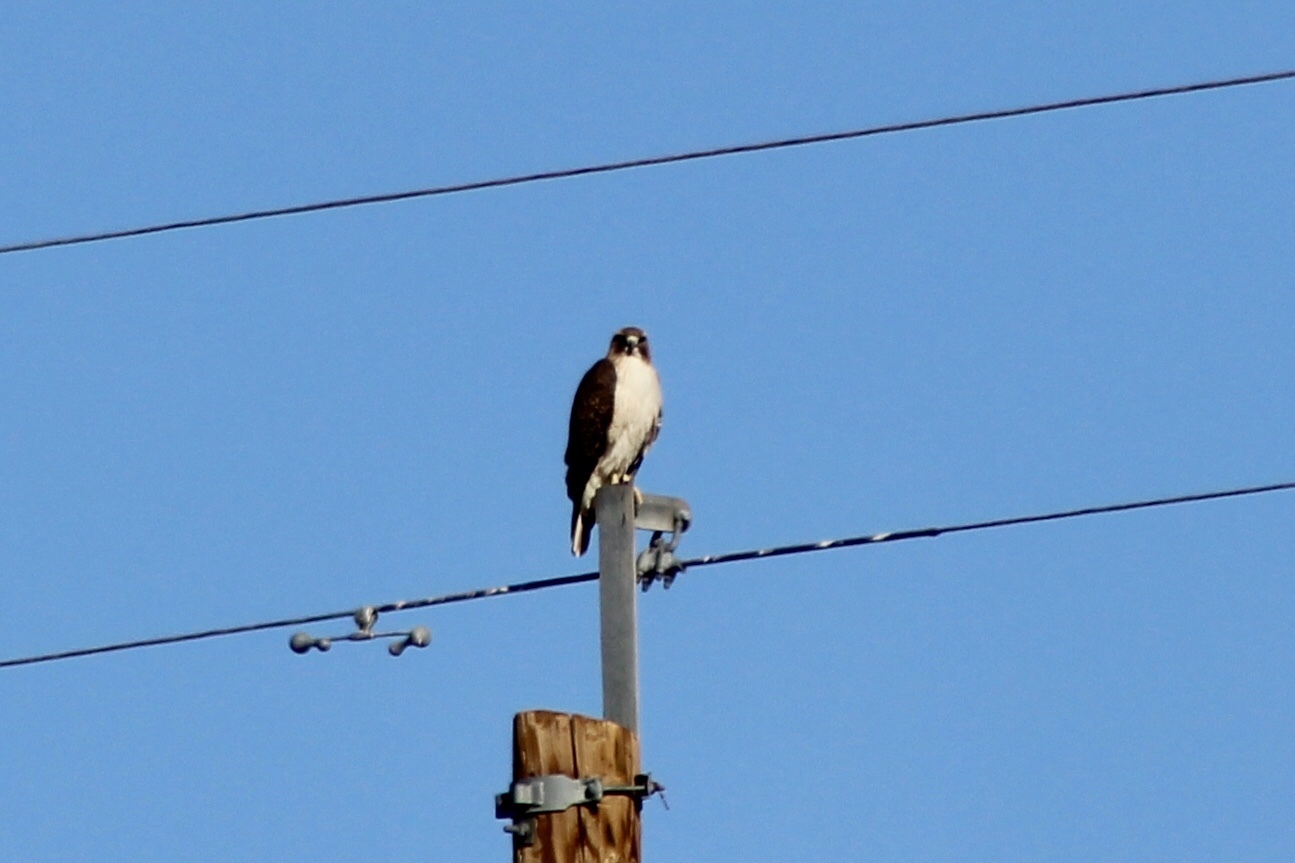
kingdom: Animalia
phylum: Chordata
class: Aves
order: Accipitriformes
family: Accipitridae
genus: Buteo
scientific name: Buteo jamaicensis
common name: Red-tailed hawk
